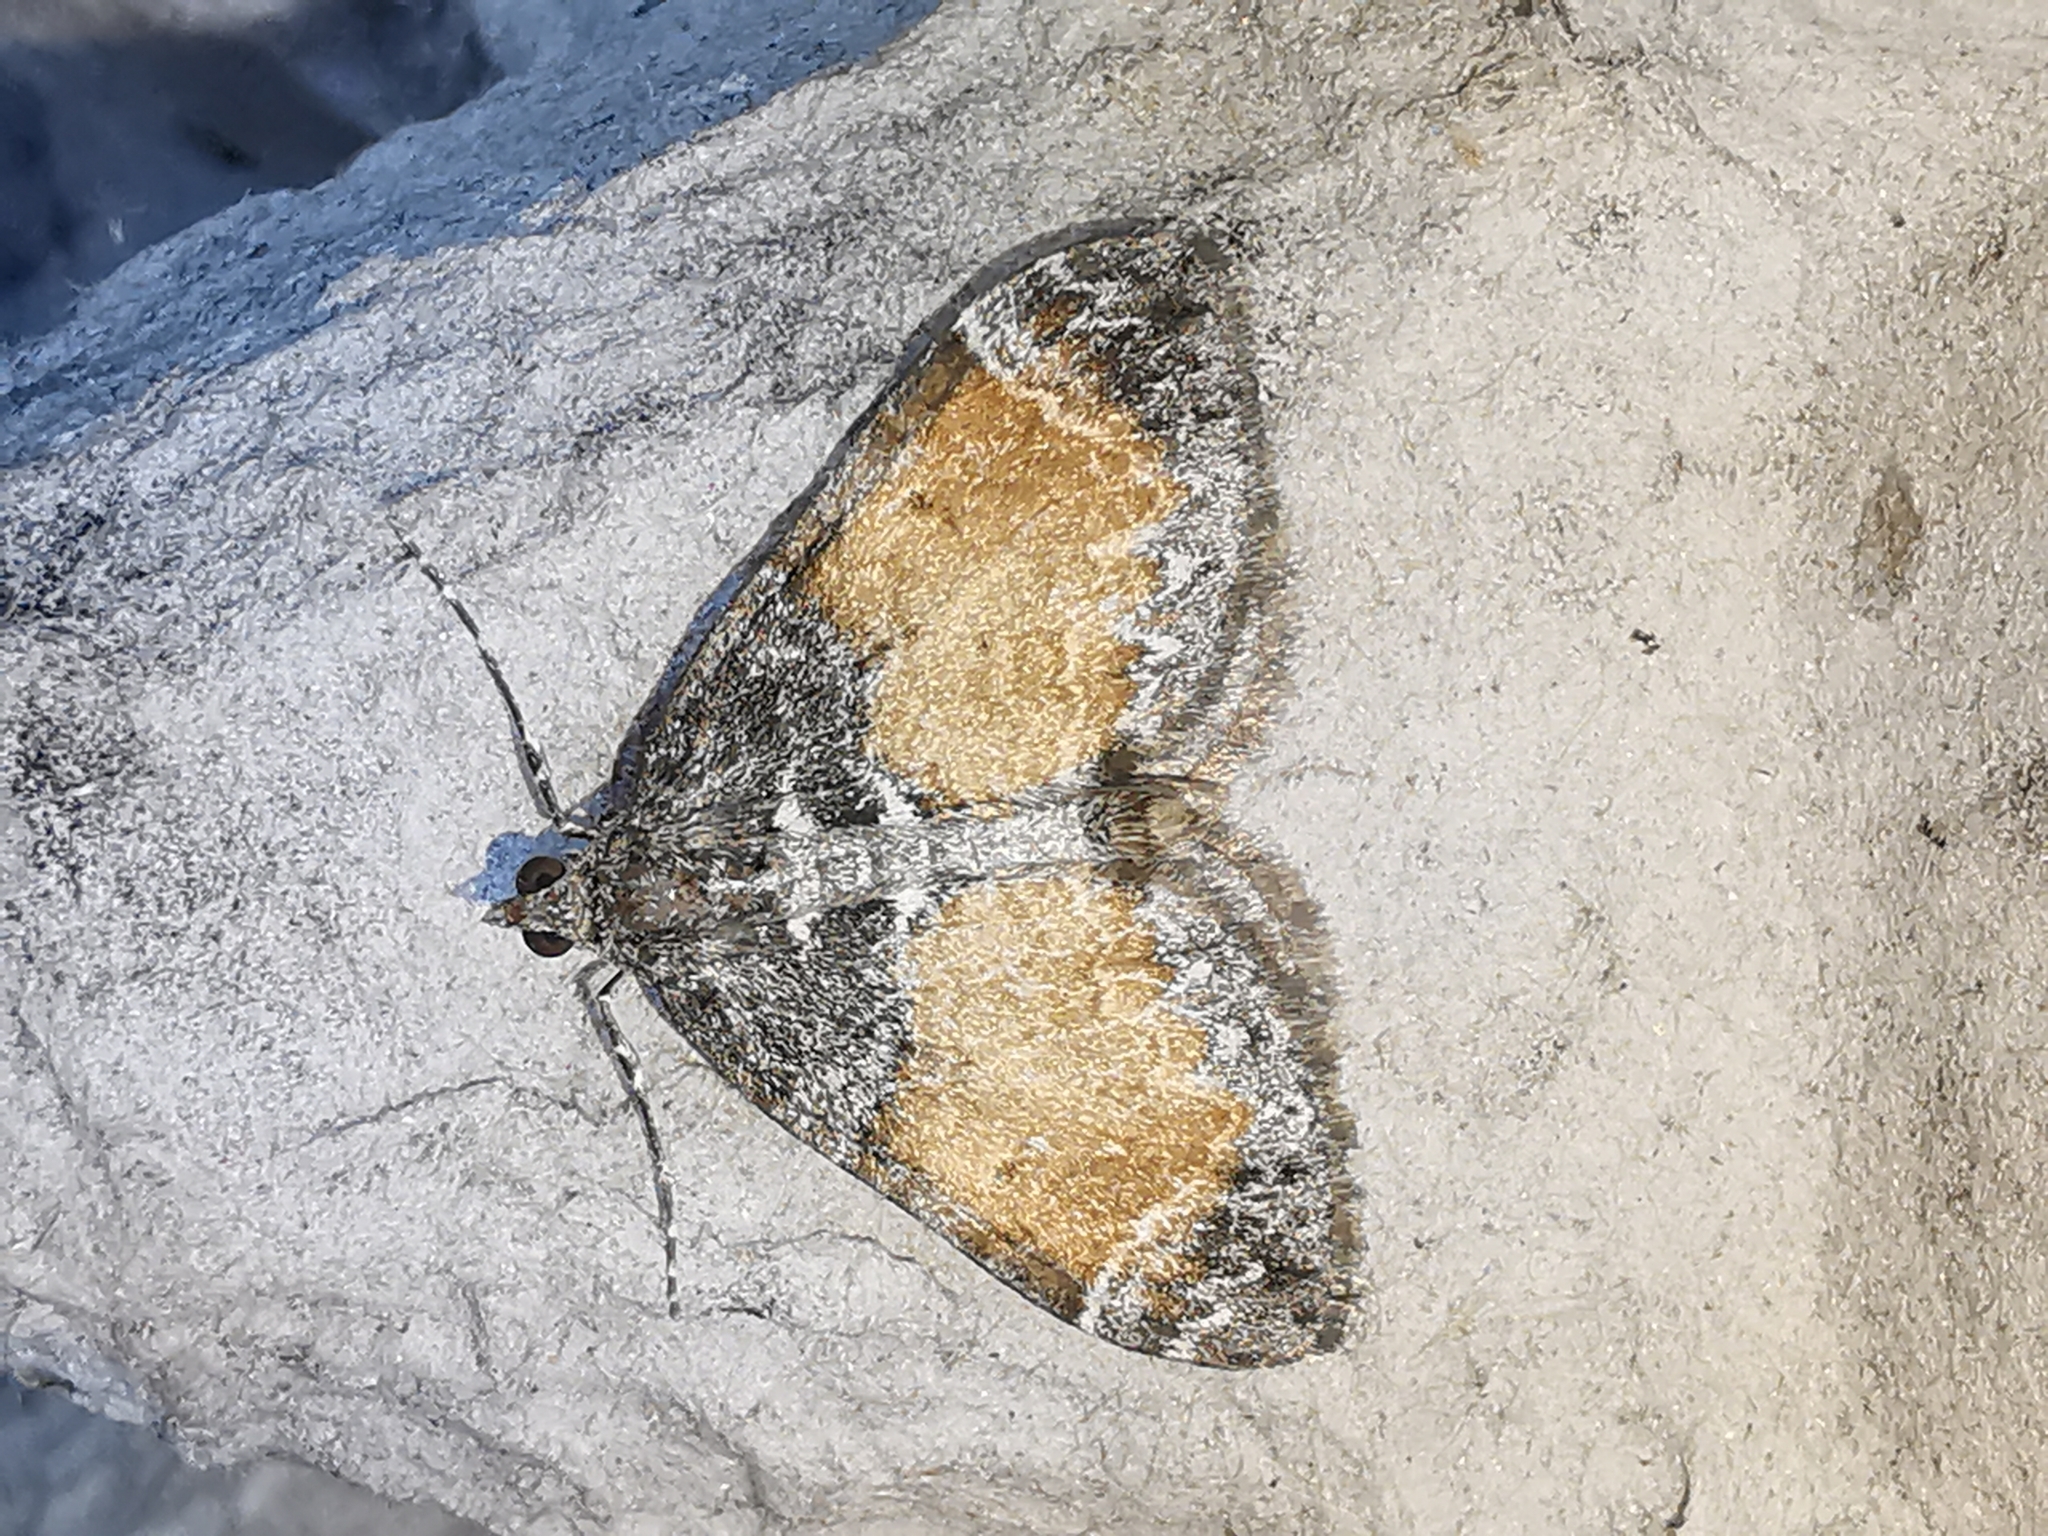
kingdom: Animalia
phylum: Arthropoda
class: Insecta
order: Lepidoptera
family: Geometridae
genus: Dysstroma
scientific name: Dysstroma truncata
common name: Common marbled carpet
